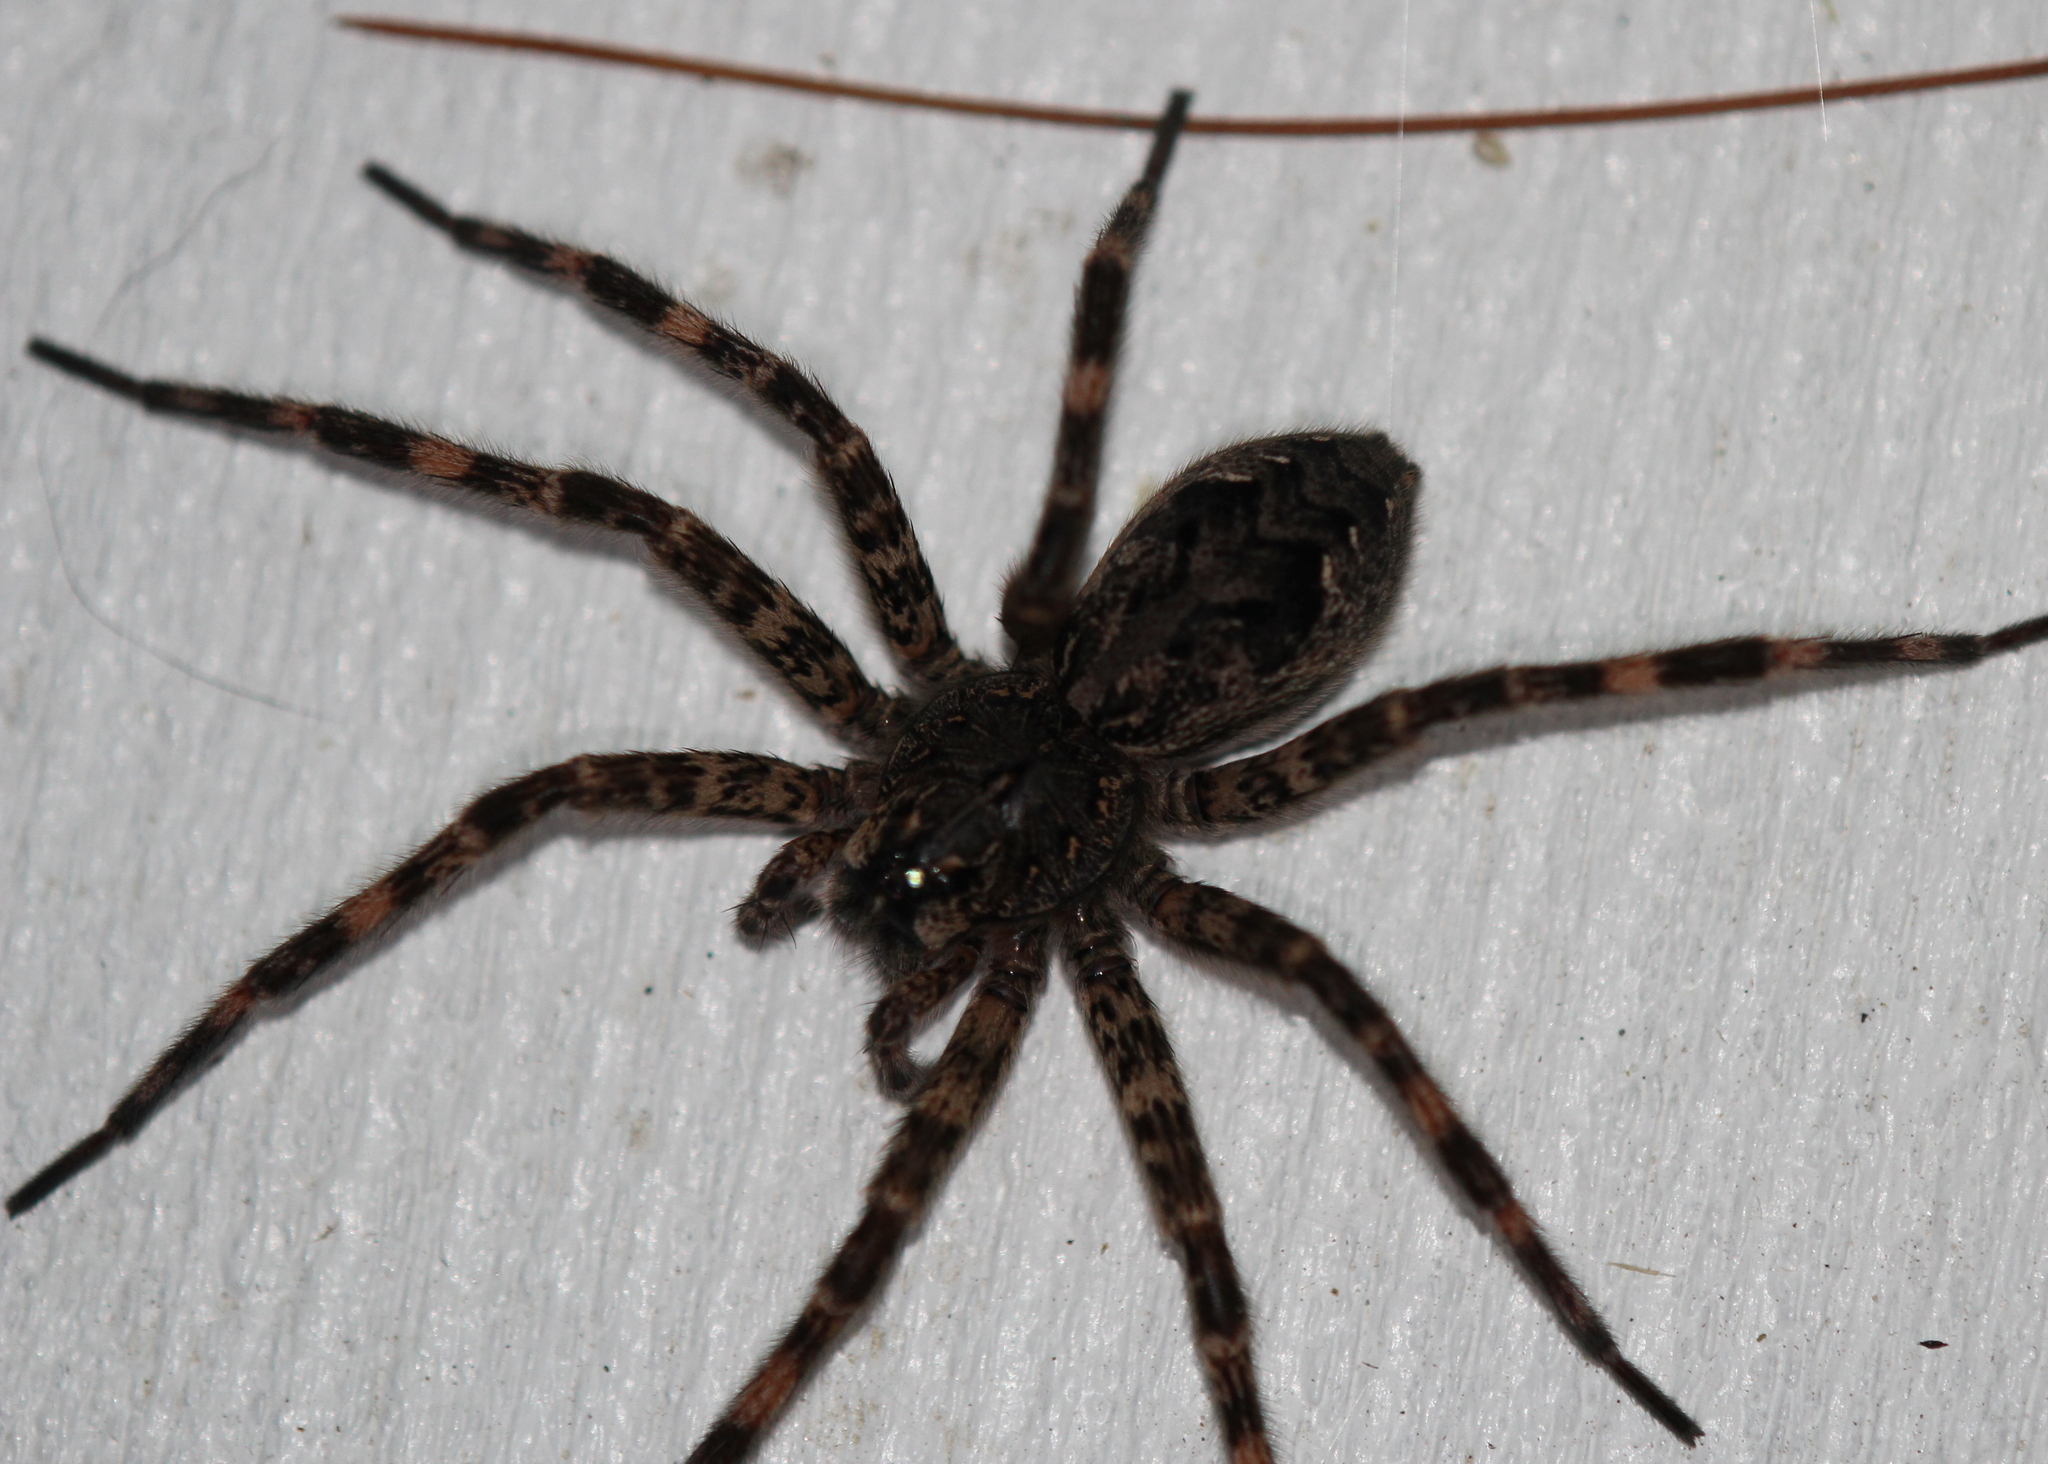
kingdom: Animalia
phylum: Arthropoda
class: Arachnida
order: Araneae
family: Pisauridae
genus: Dolomedes
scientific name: Dolomedes tenebrosus
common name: Dark fishing spider
